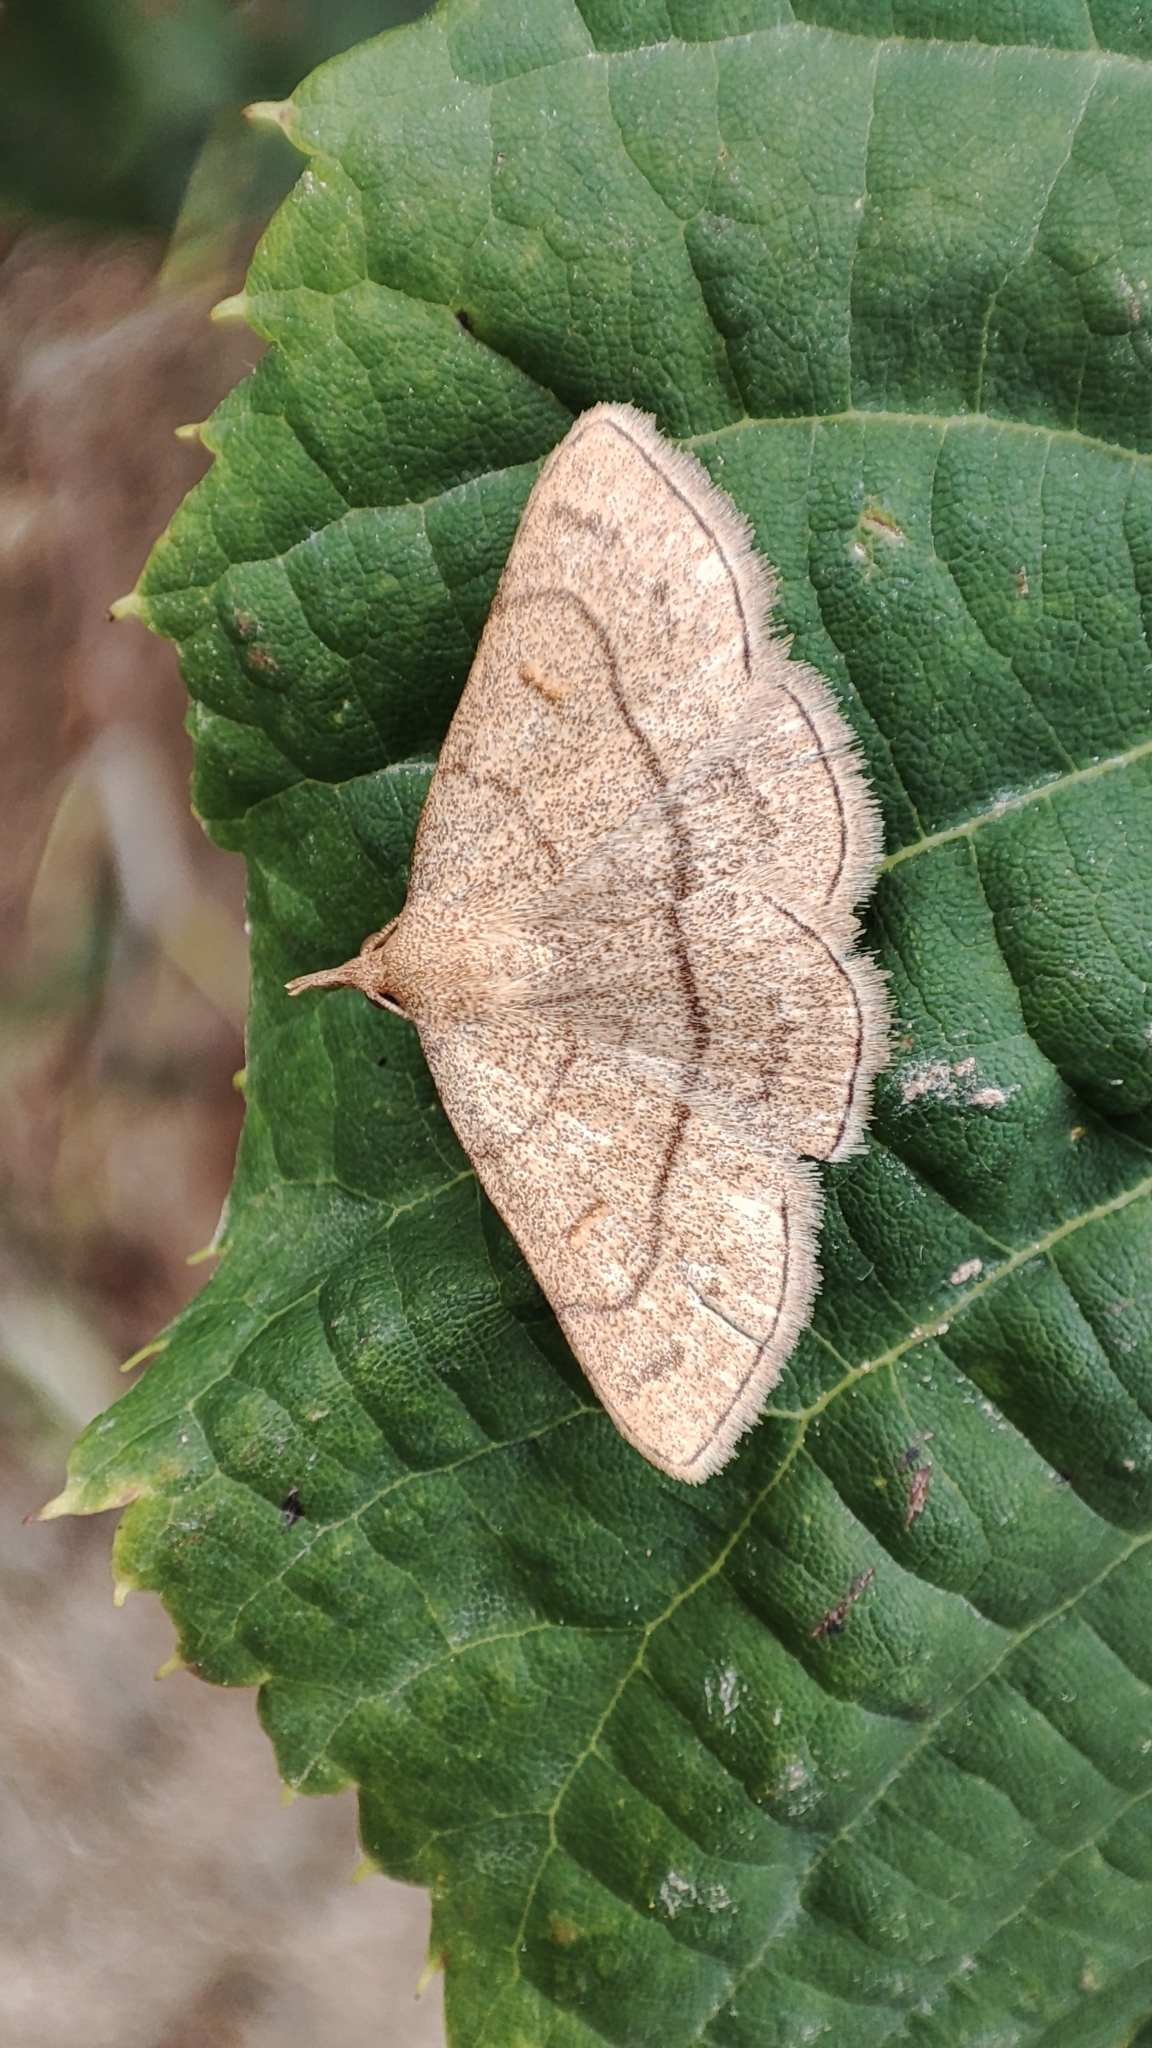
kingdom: Animalia
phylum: Arthropoda
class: Insecta
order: Lepidoptera
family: Erebidae
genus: Paracolax
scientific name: Paracolax tristalis
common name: Clay fan-foot
